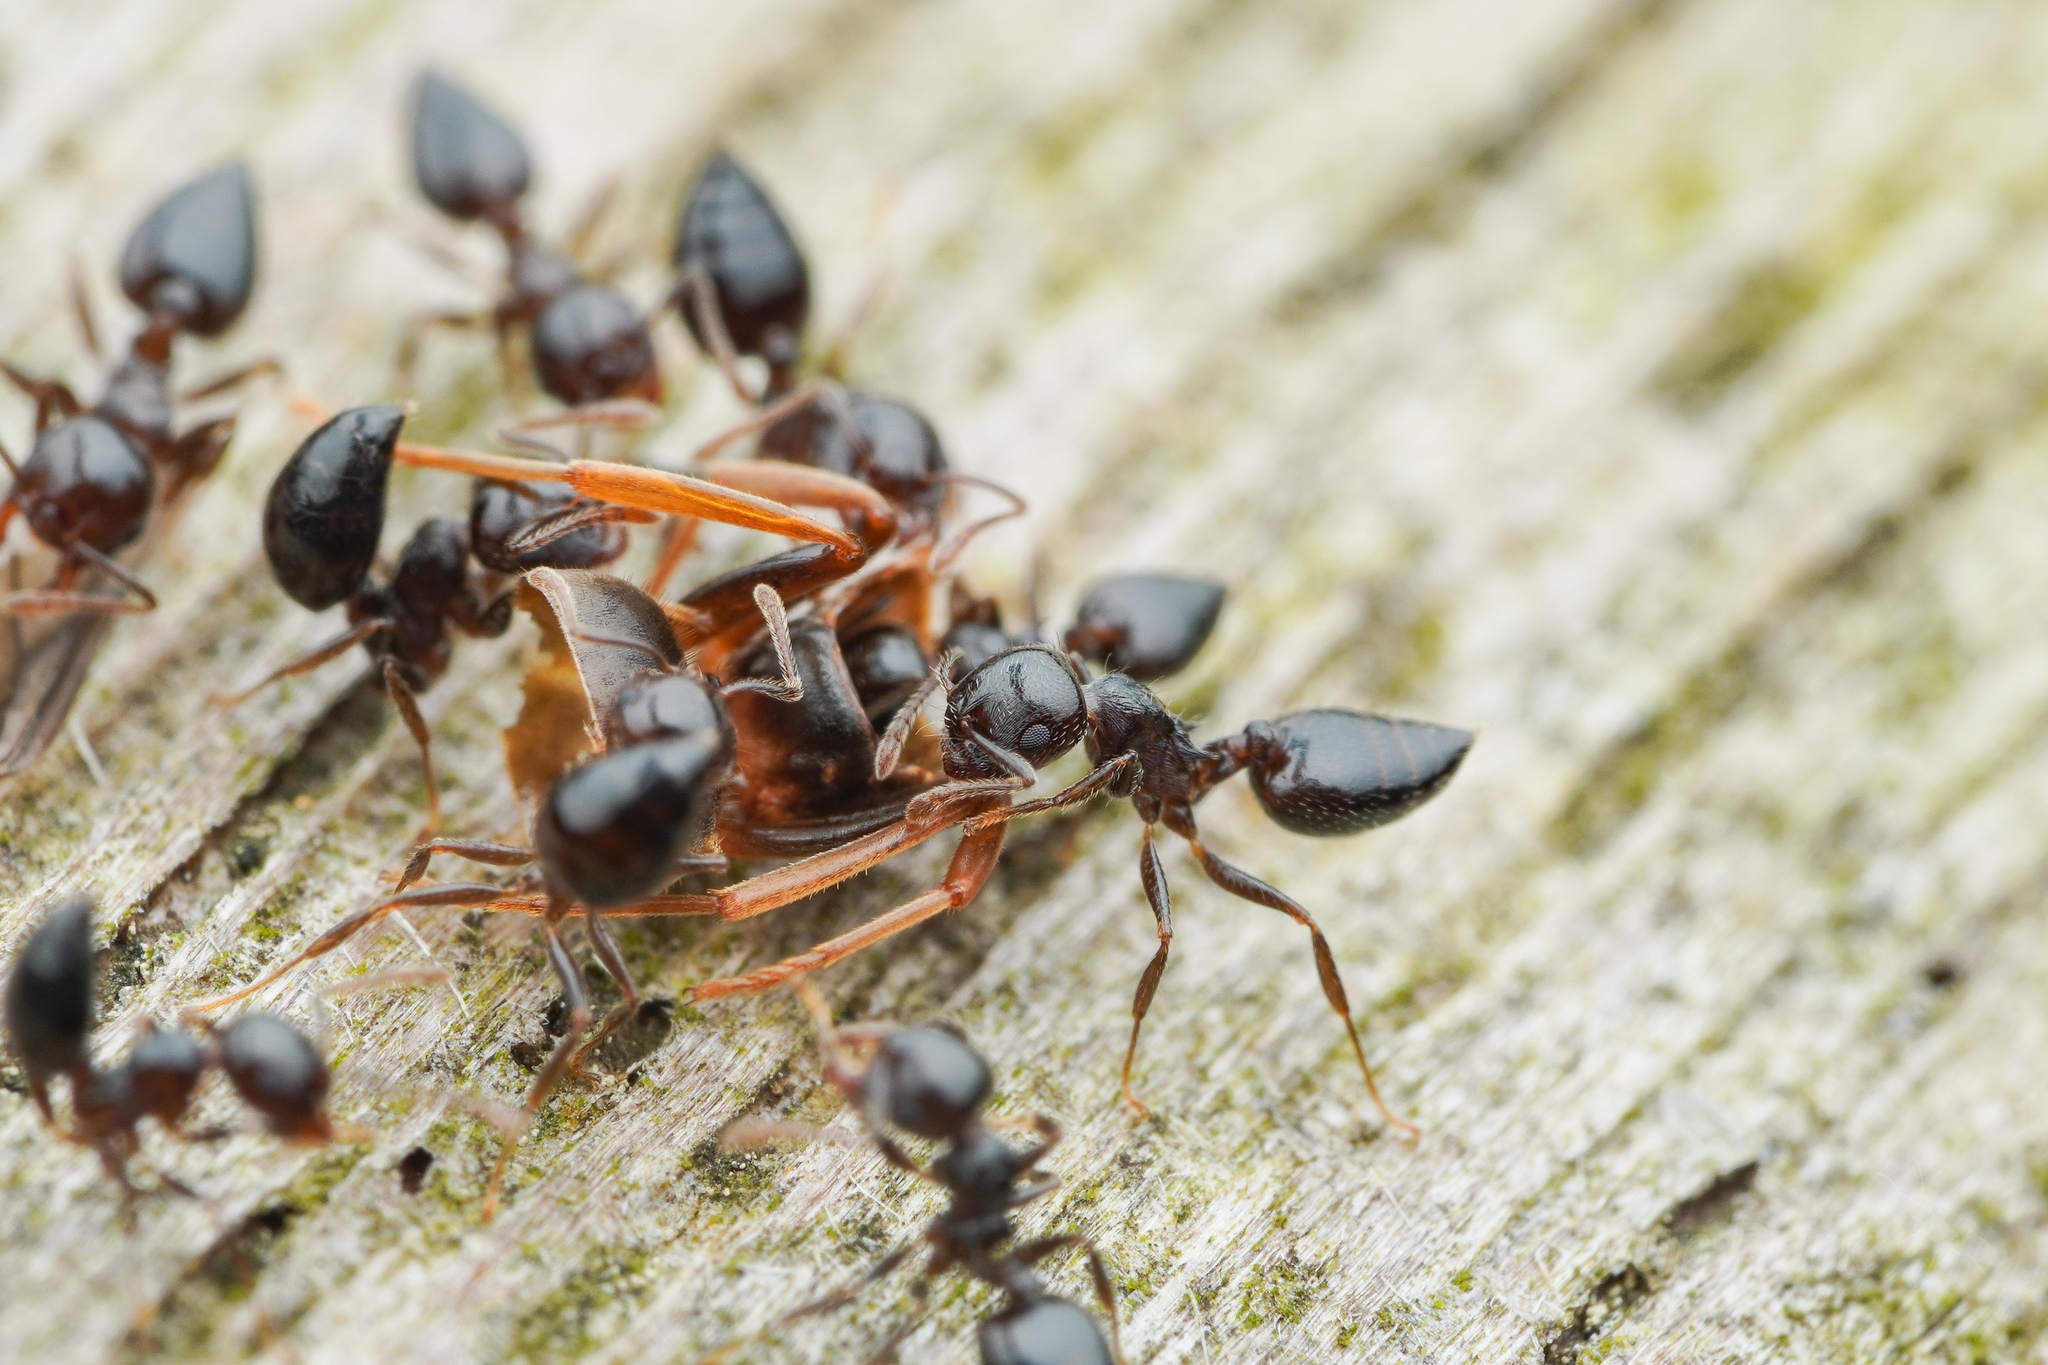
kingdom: Animalia
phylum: Arthropoda
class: Insecta
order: Hymenoptera
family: Formicidae
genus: Crematogaster
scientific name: Crematogaster teranishii
